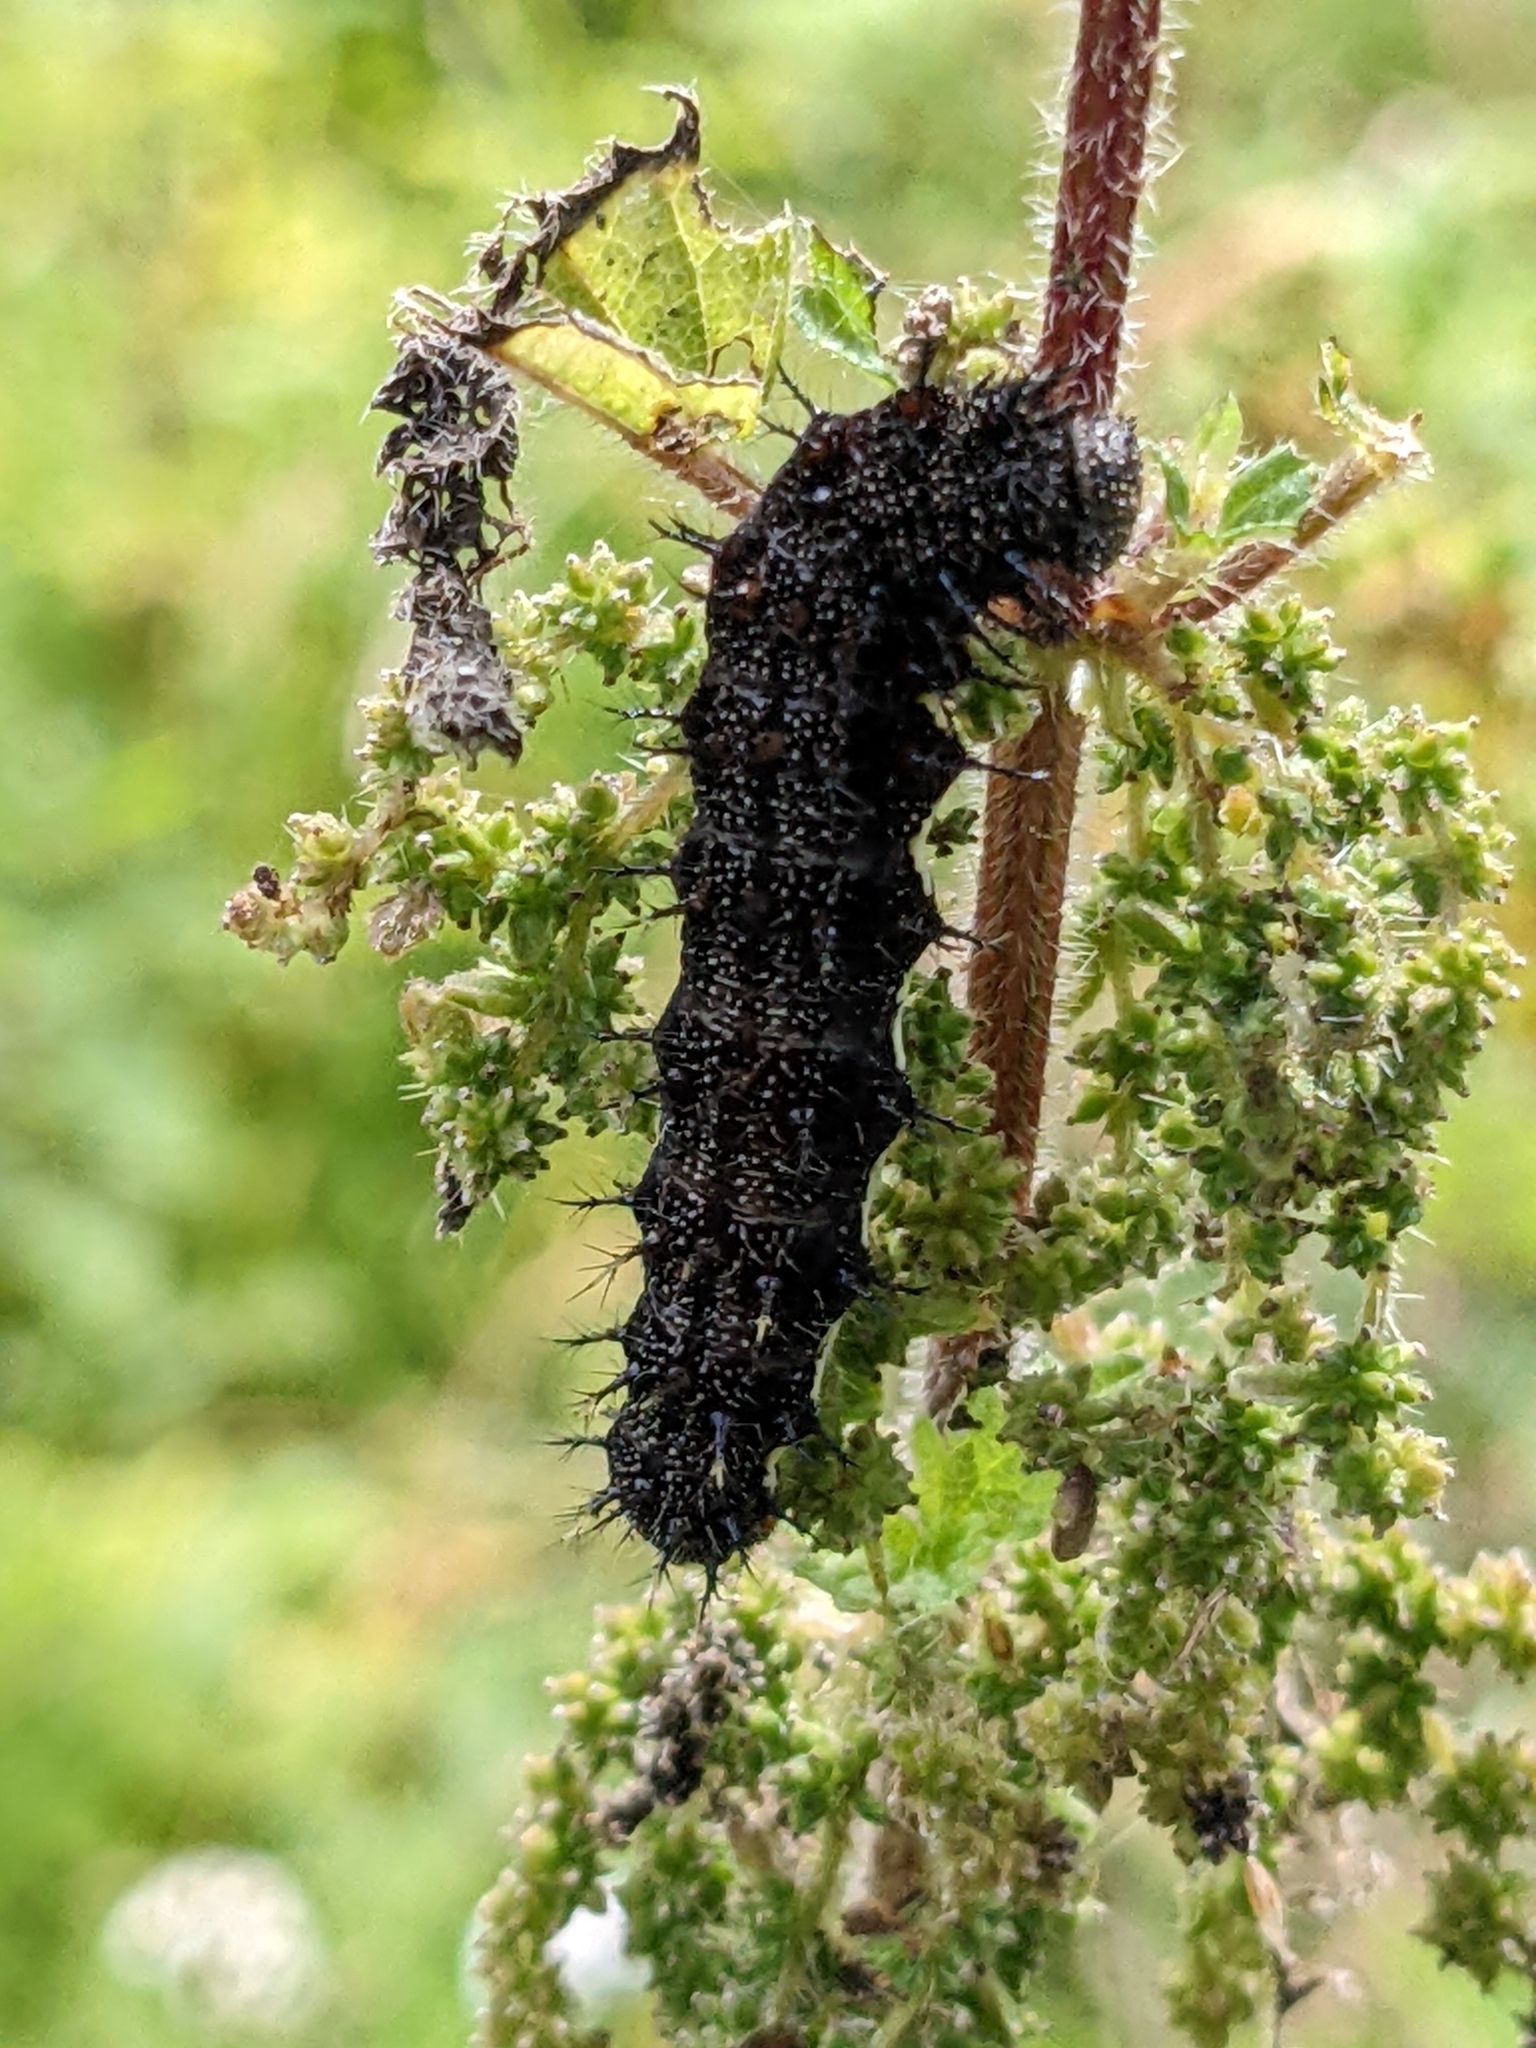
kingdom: Animalia
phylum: Arthropoda
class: Insecta
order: Lepidoptera
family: Nymphalidae
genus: Vanessa
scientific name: Vanessa atalanta
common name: Red admiral
